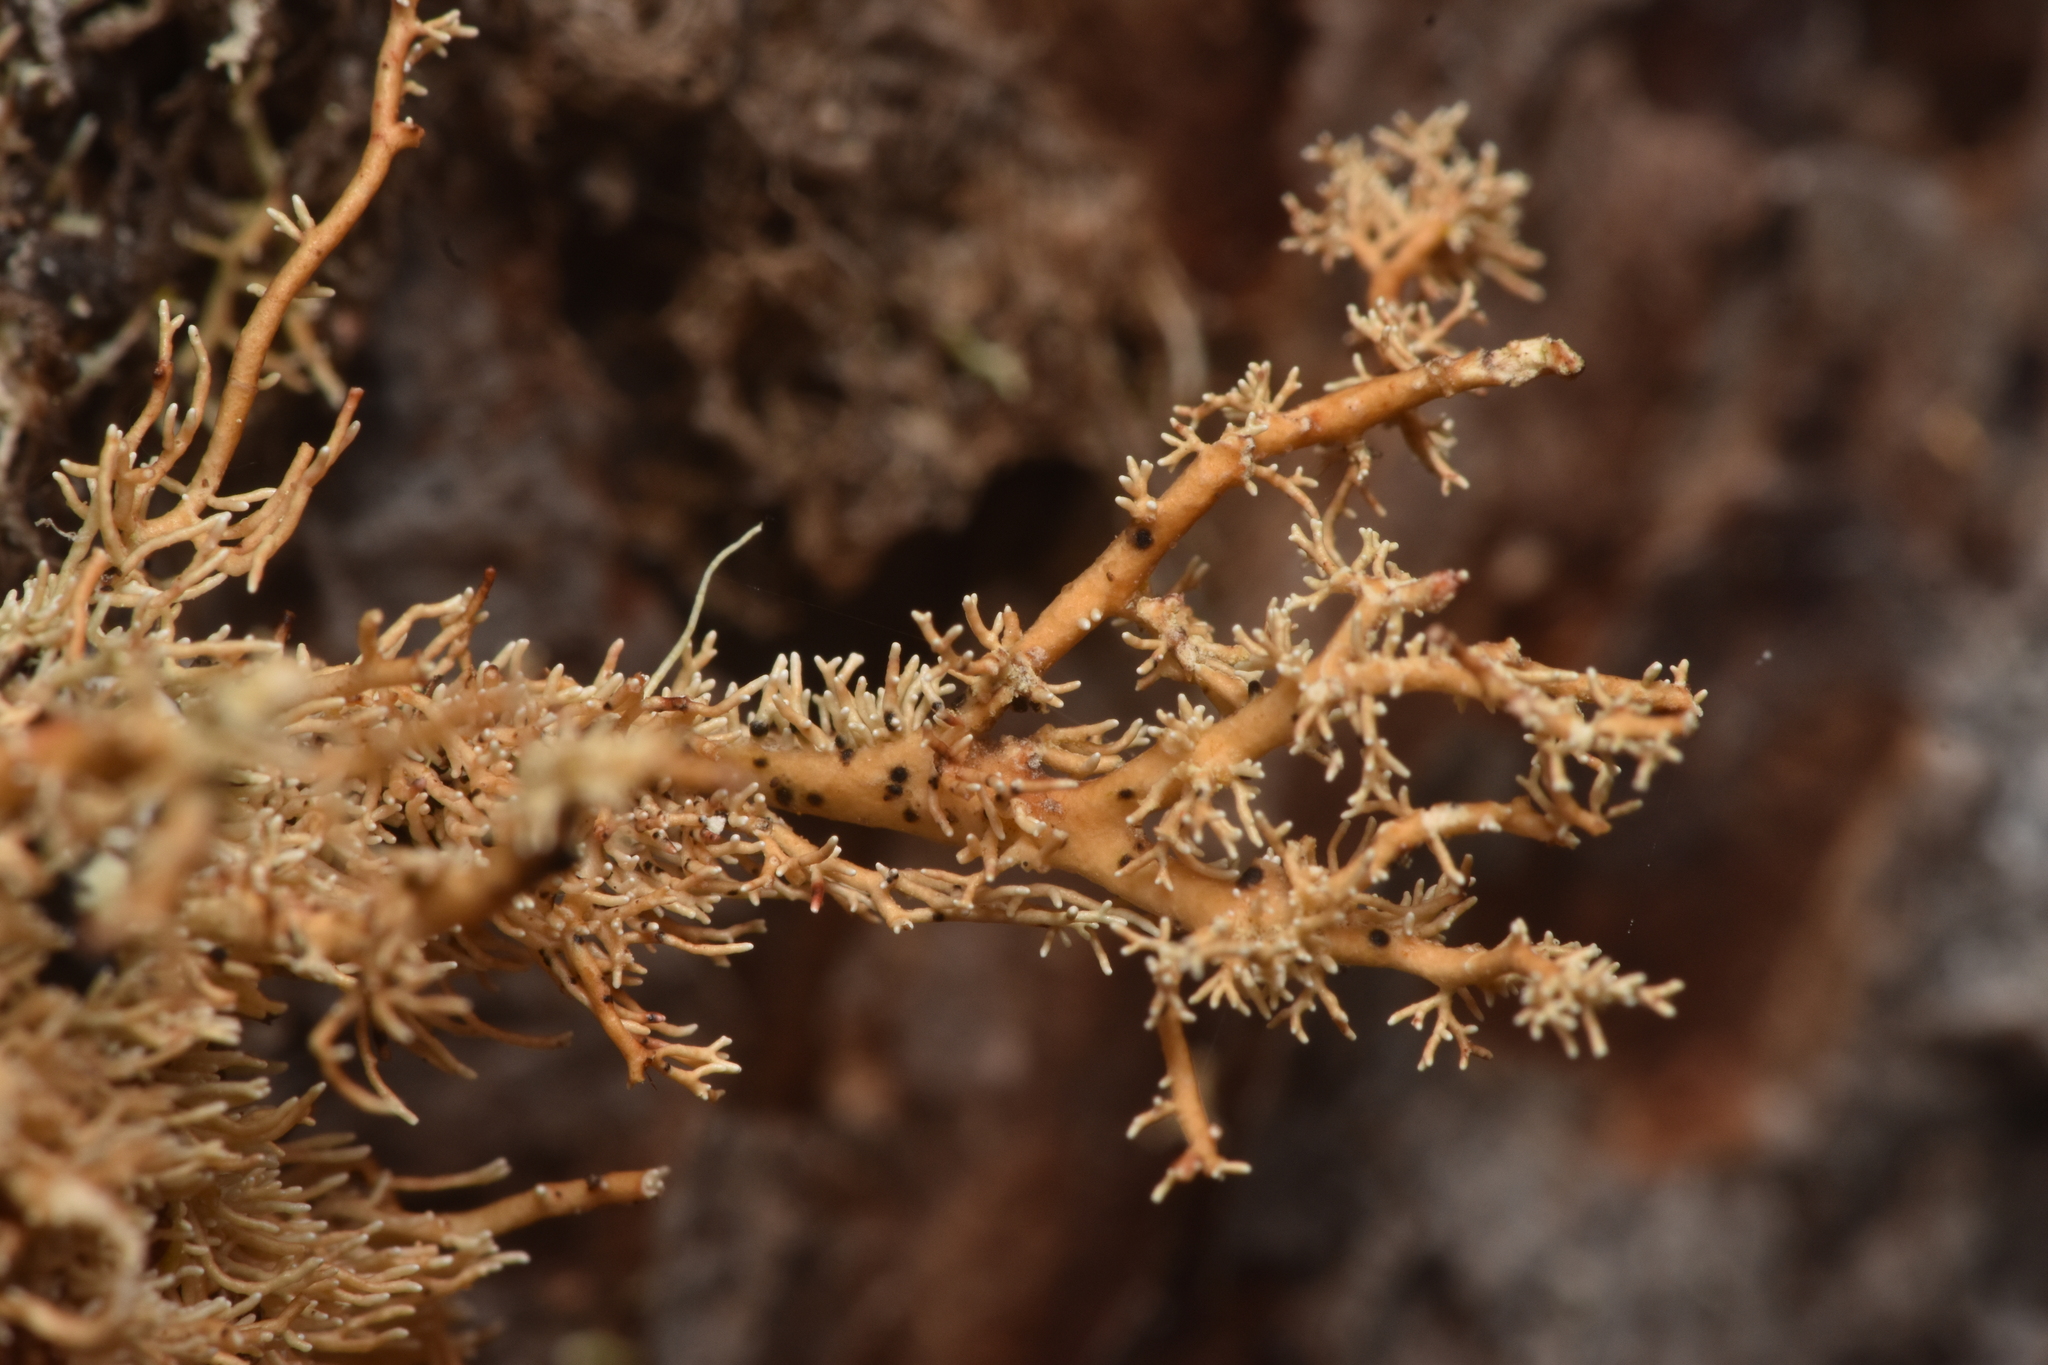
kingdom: Fungi
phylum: Ascomycota
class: Arthoniomycetes
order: Arthoniales
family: Opegraphaceae
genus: Opegrapha
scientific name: Opegrapha sphaerophoricola
